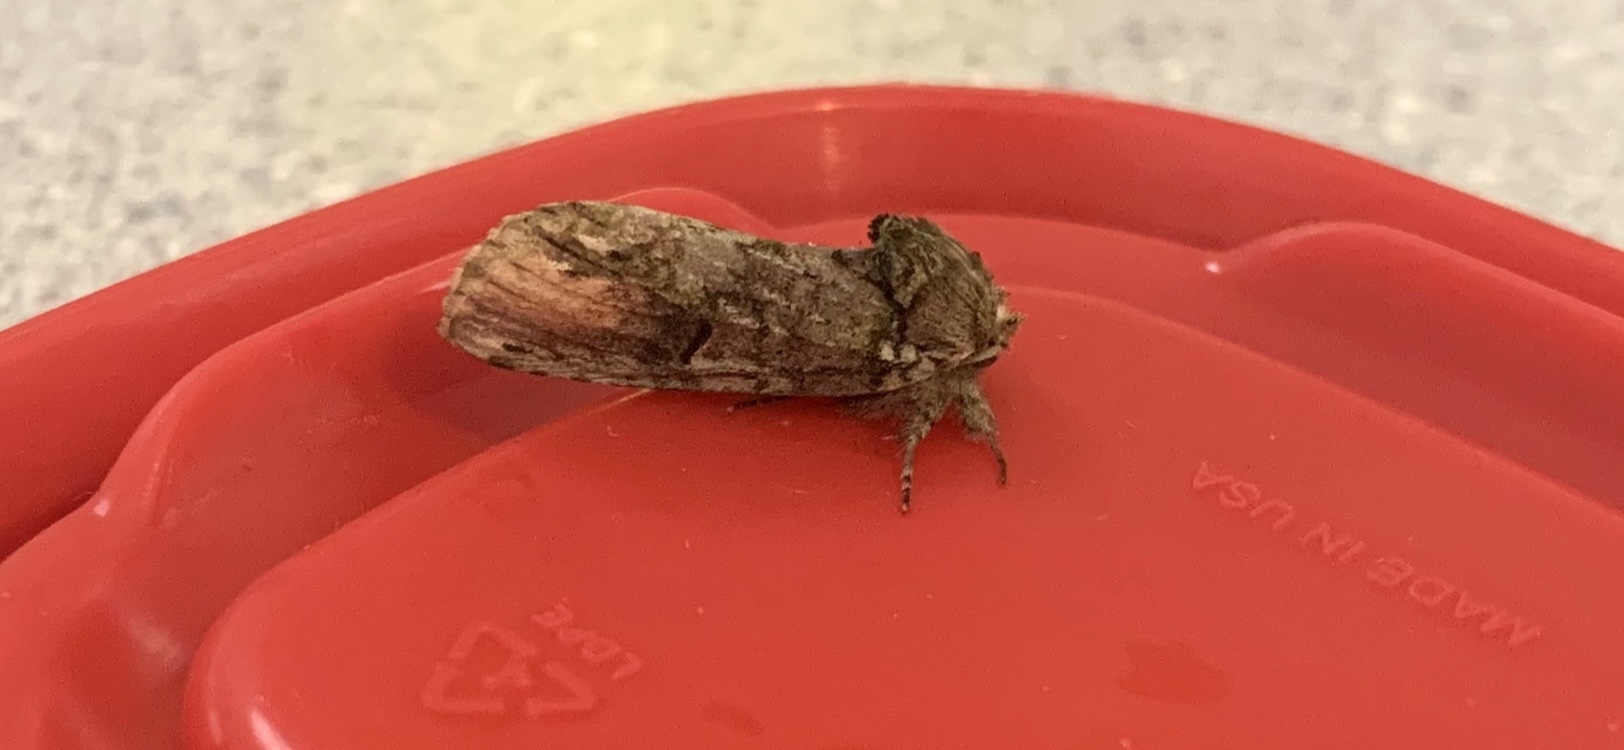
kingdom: Animalia
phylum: Arthropoda
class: Insecta
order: Lepidoptera
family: Notodontidae
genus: Schizura
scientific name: Schizura
